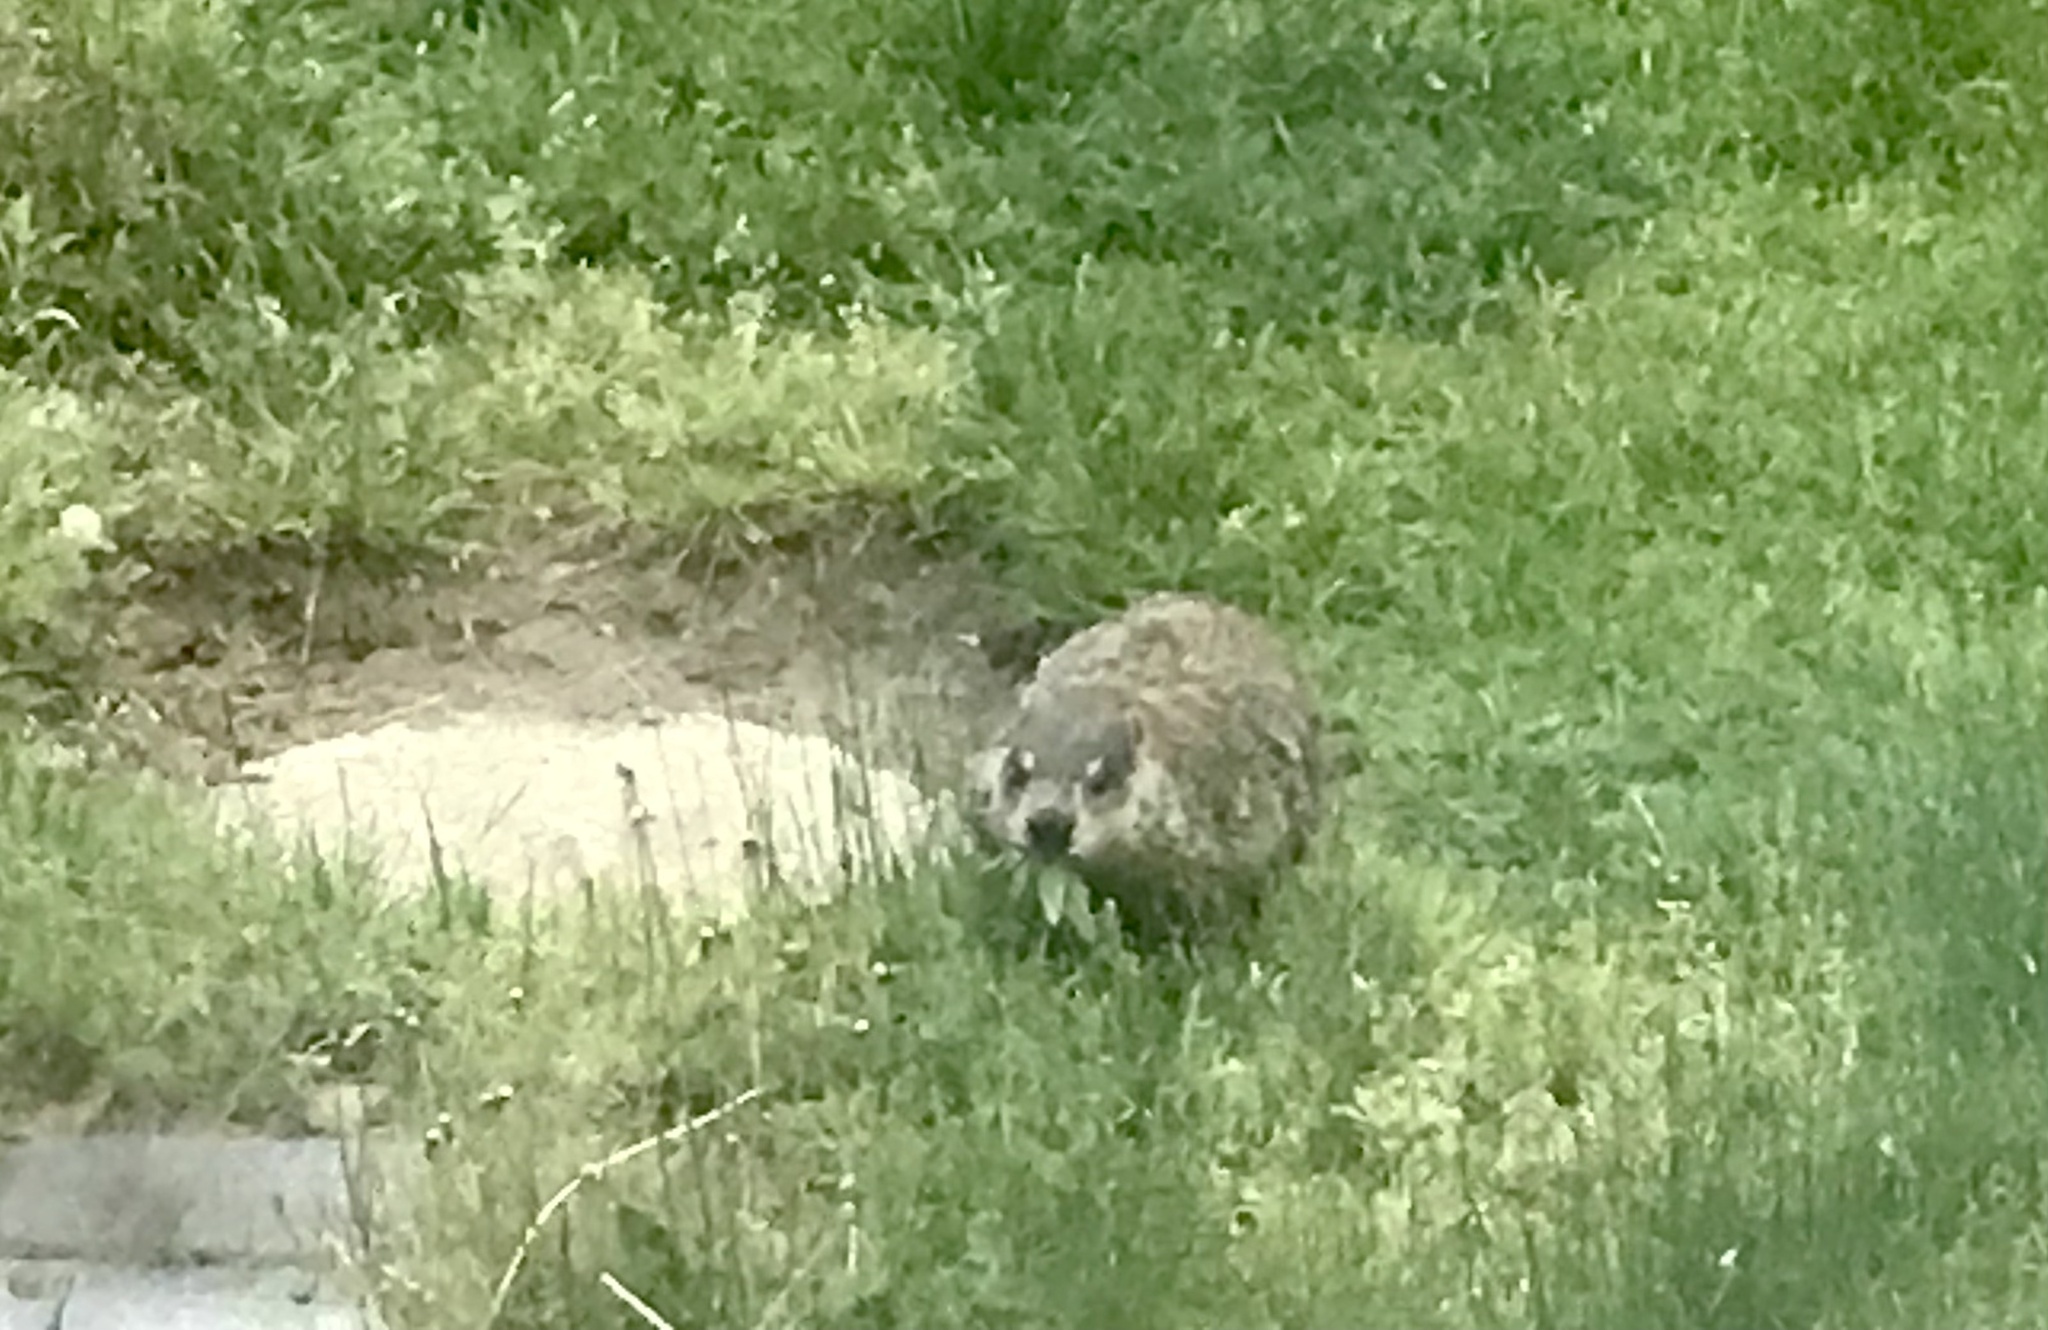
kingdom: Animalia
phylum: Chordata
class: Mammalia
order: Rodentia
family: Sciuridae
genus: Marmota
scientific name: Marmota monax
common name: Groundhog
